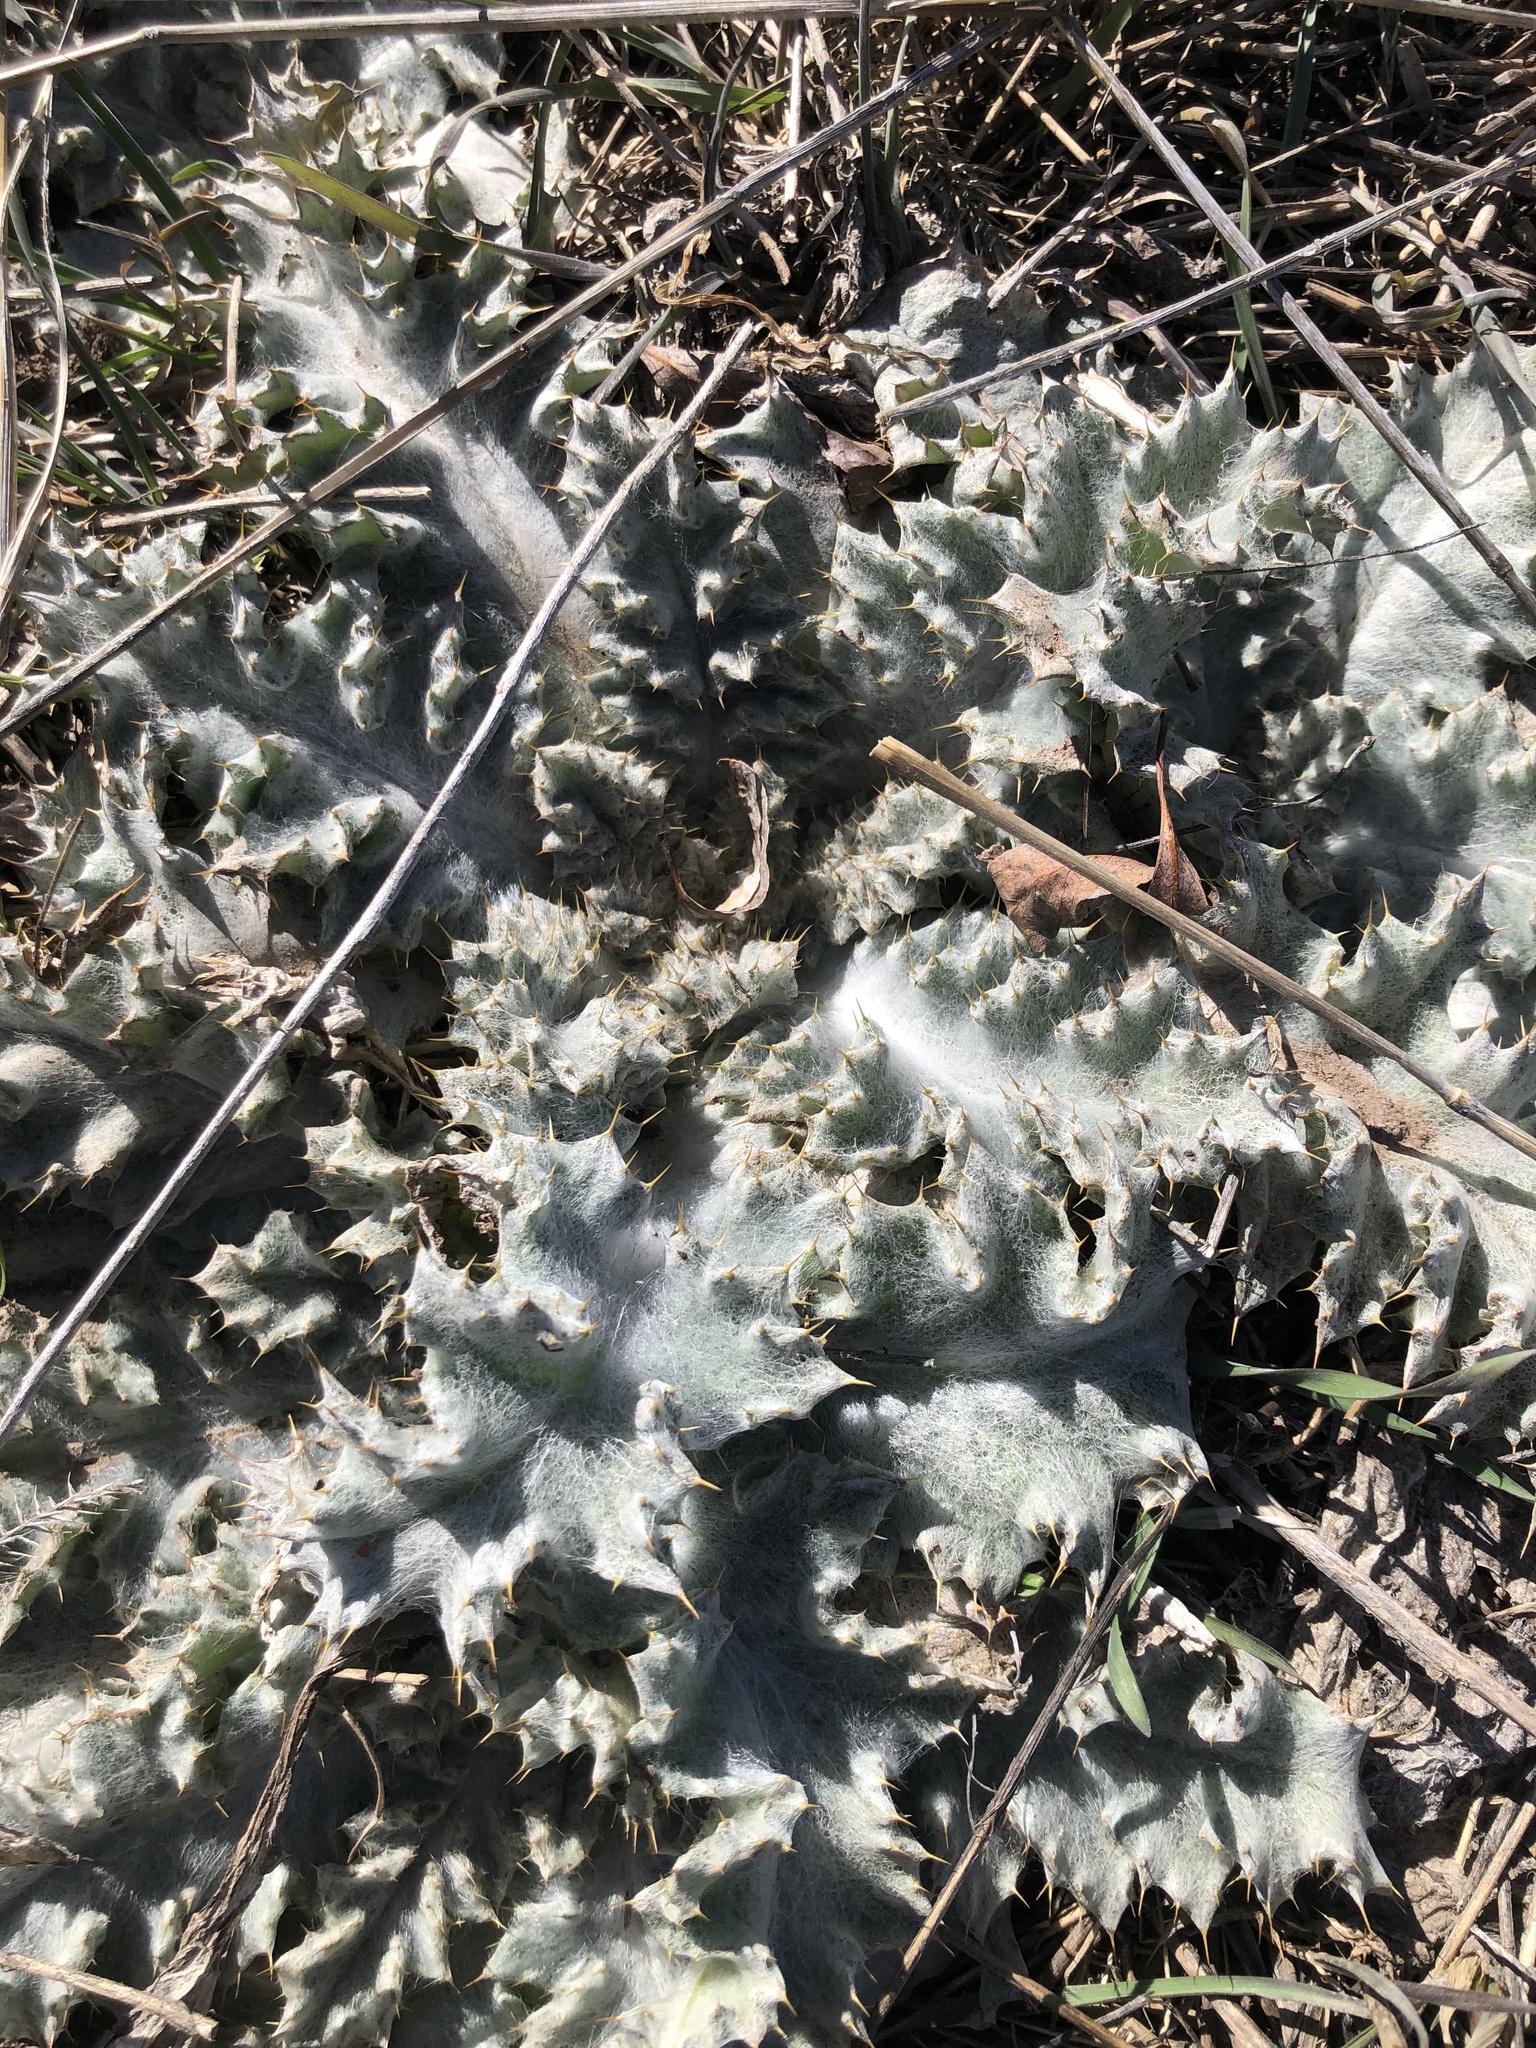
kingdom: Plantae
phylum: Tracheophyta
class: Magnoliopsida
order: Asterales
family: Asteraceae
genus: Onopordum
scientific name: Onopordum acanthium
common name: Scotch thistle
